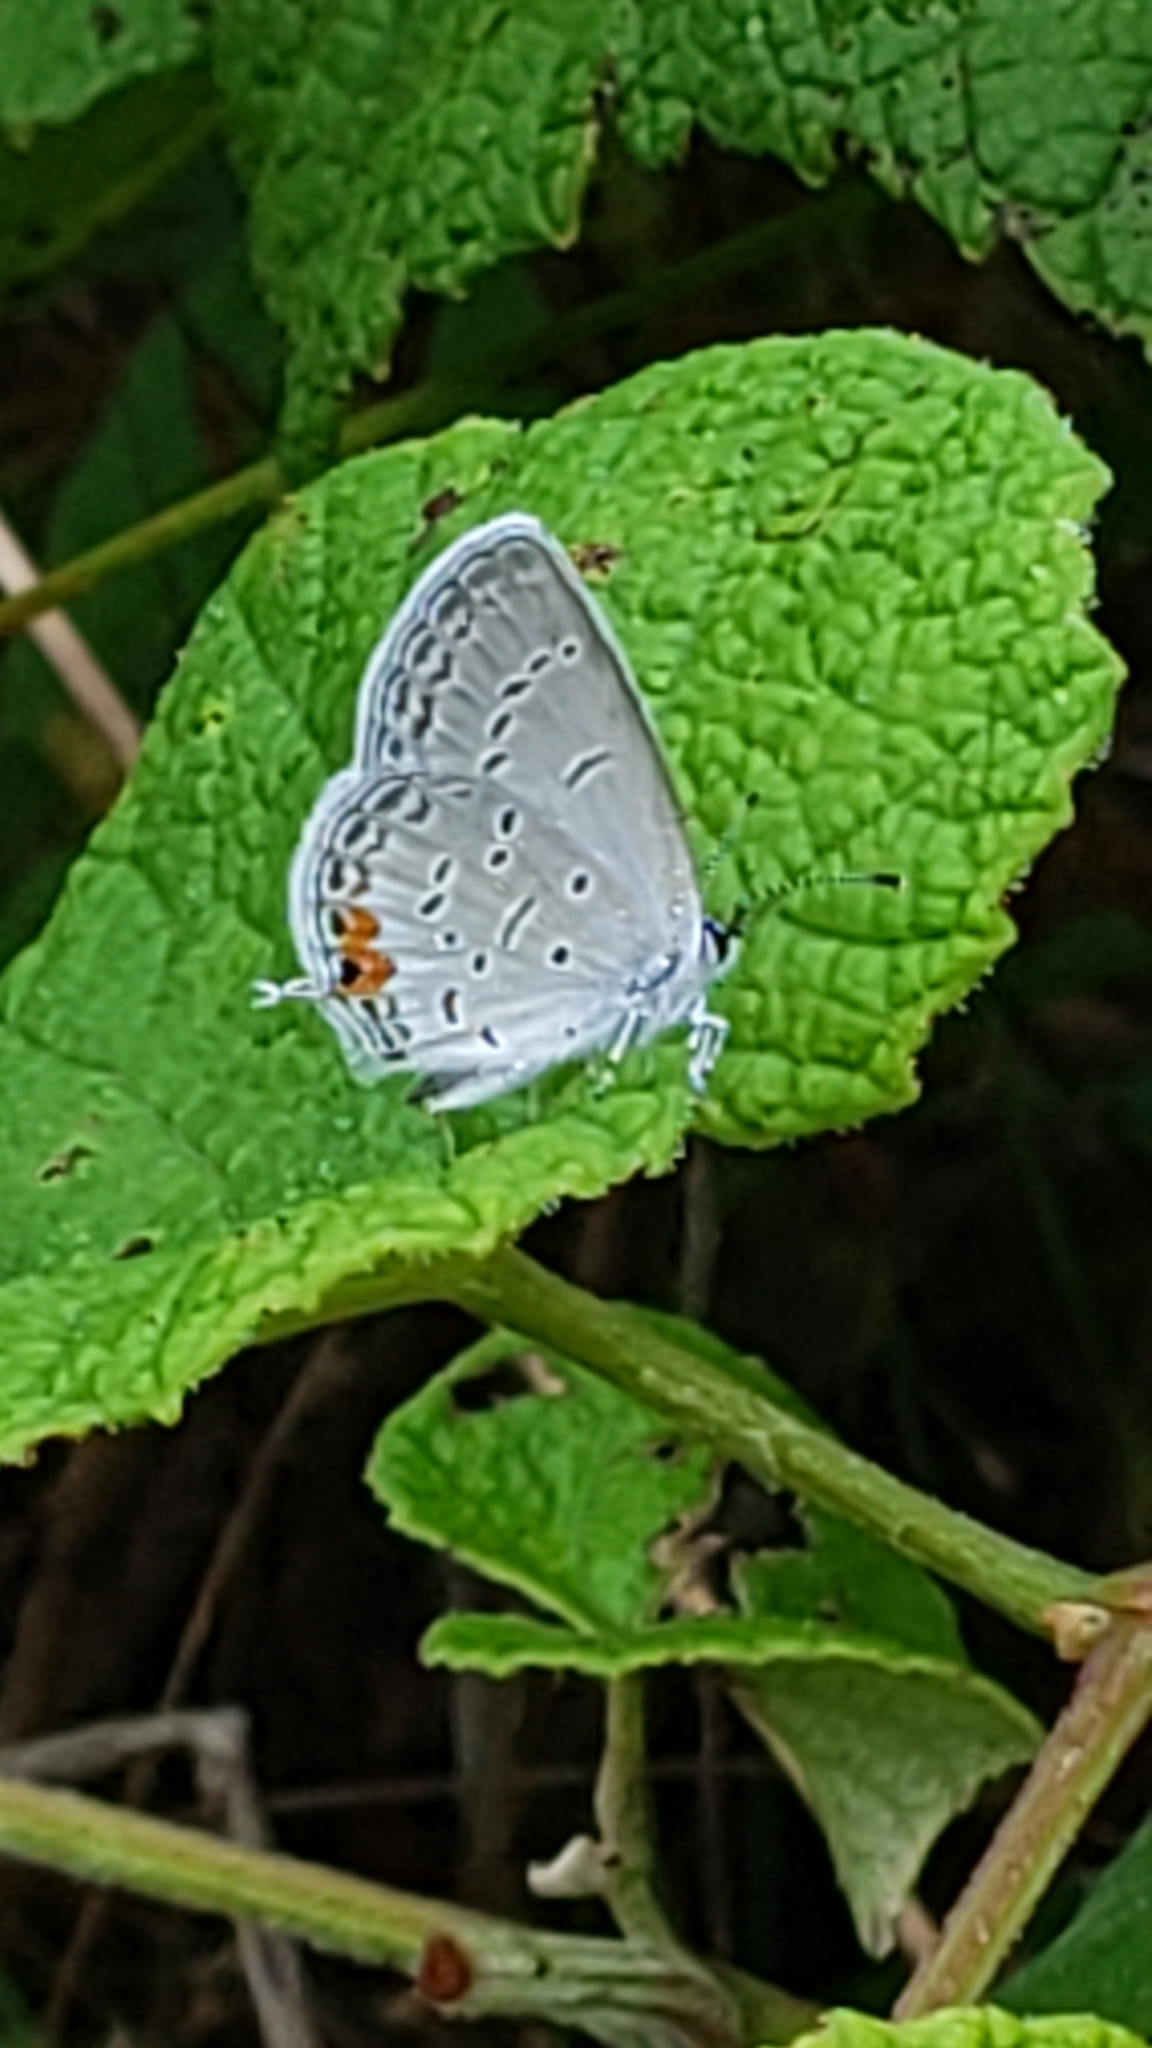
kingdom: Animalia
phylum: Arthropoda
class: Insecta
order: Lepidoptera
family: Lycaenidae
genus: Elkalyce
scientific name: Elkalyce comyntas
